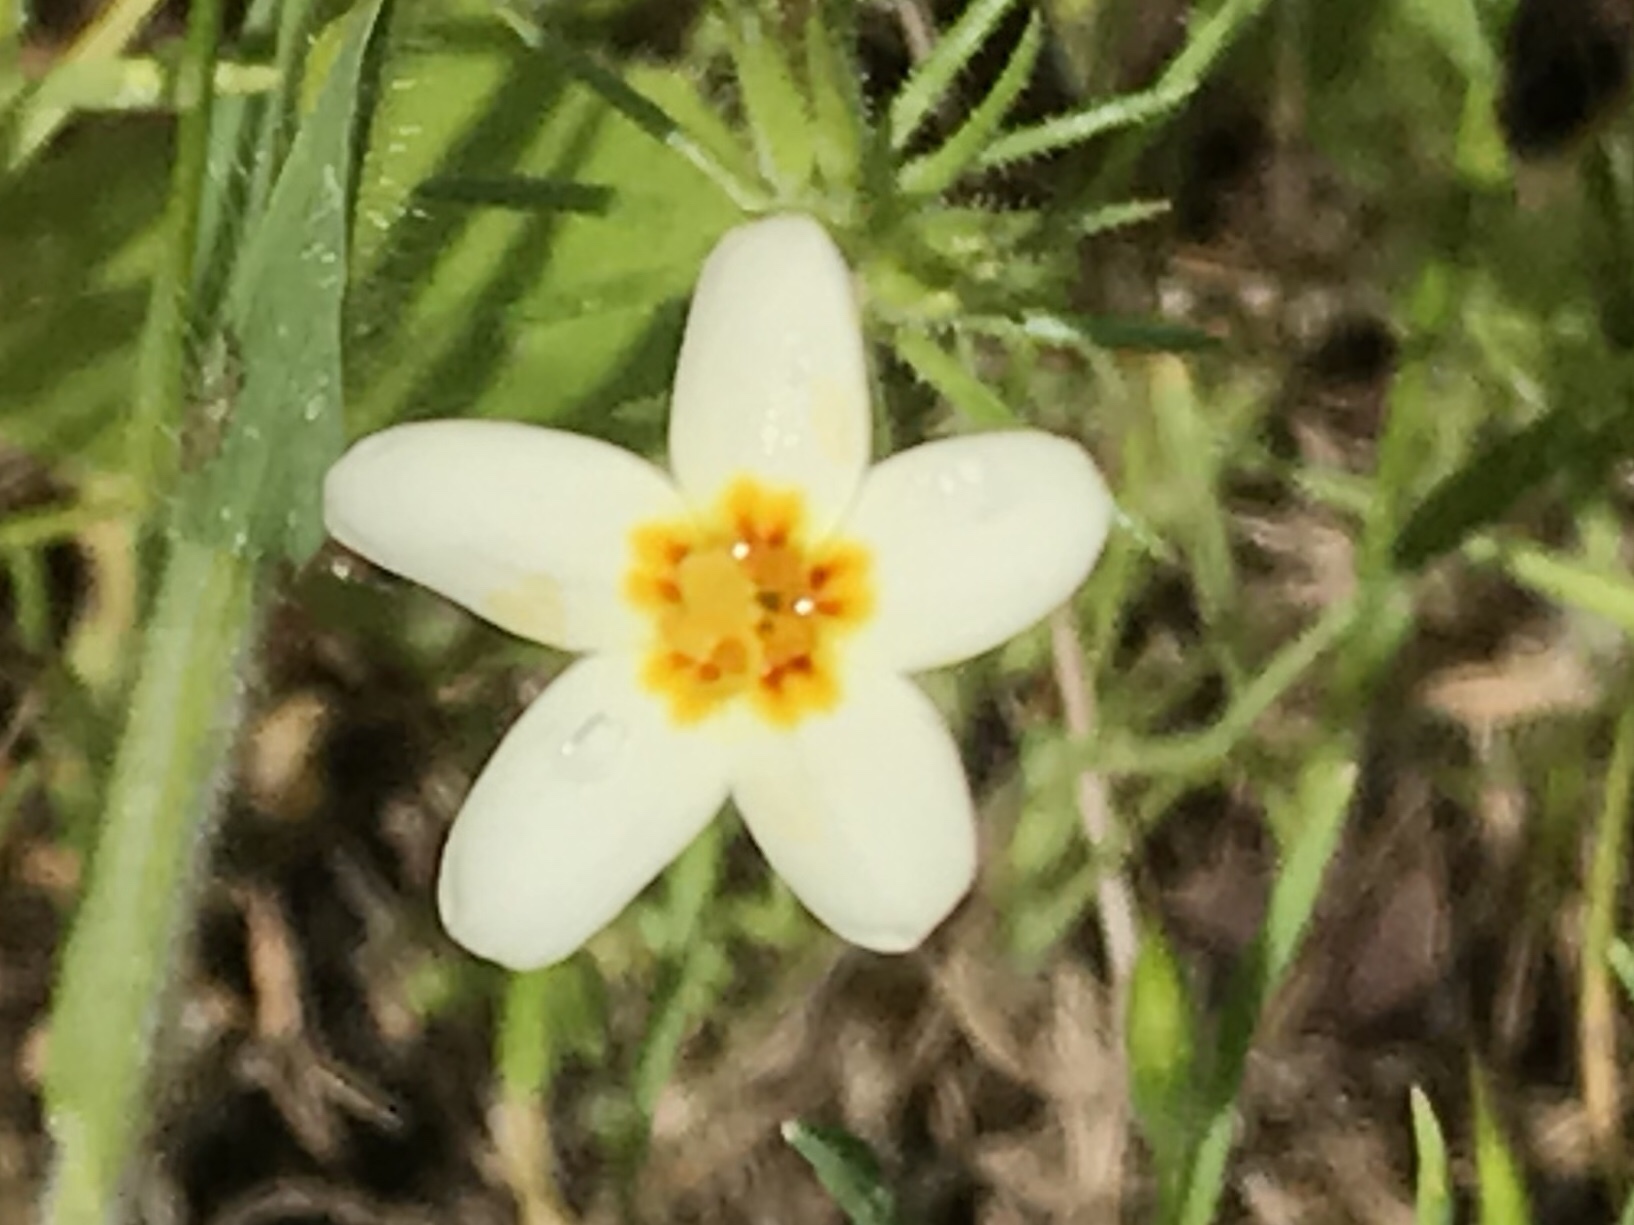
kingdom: Plantae
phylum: Tracheophyta
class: Magnoliopsida
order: Ericales
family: Polemoniaceae
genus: Leptosiphon
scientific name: Leptosiphon parviflorus
